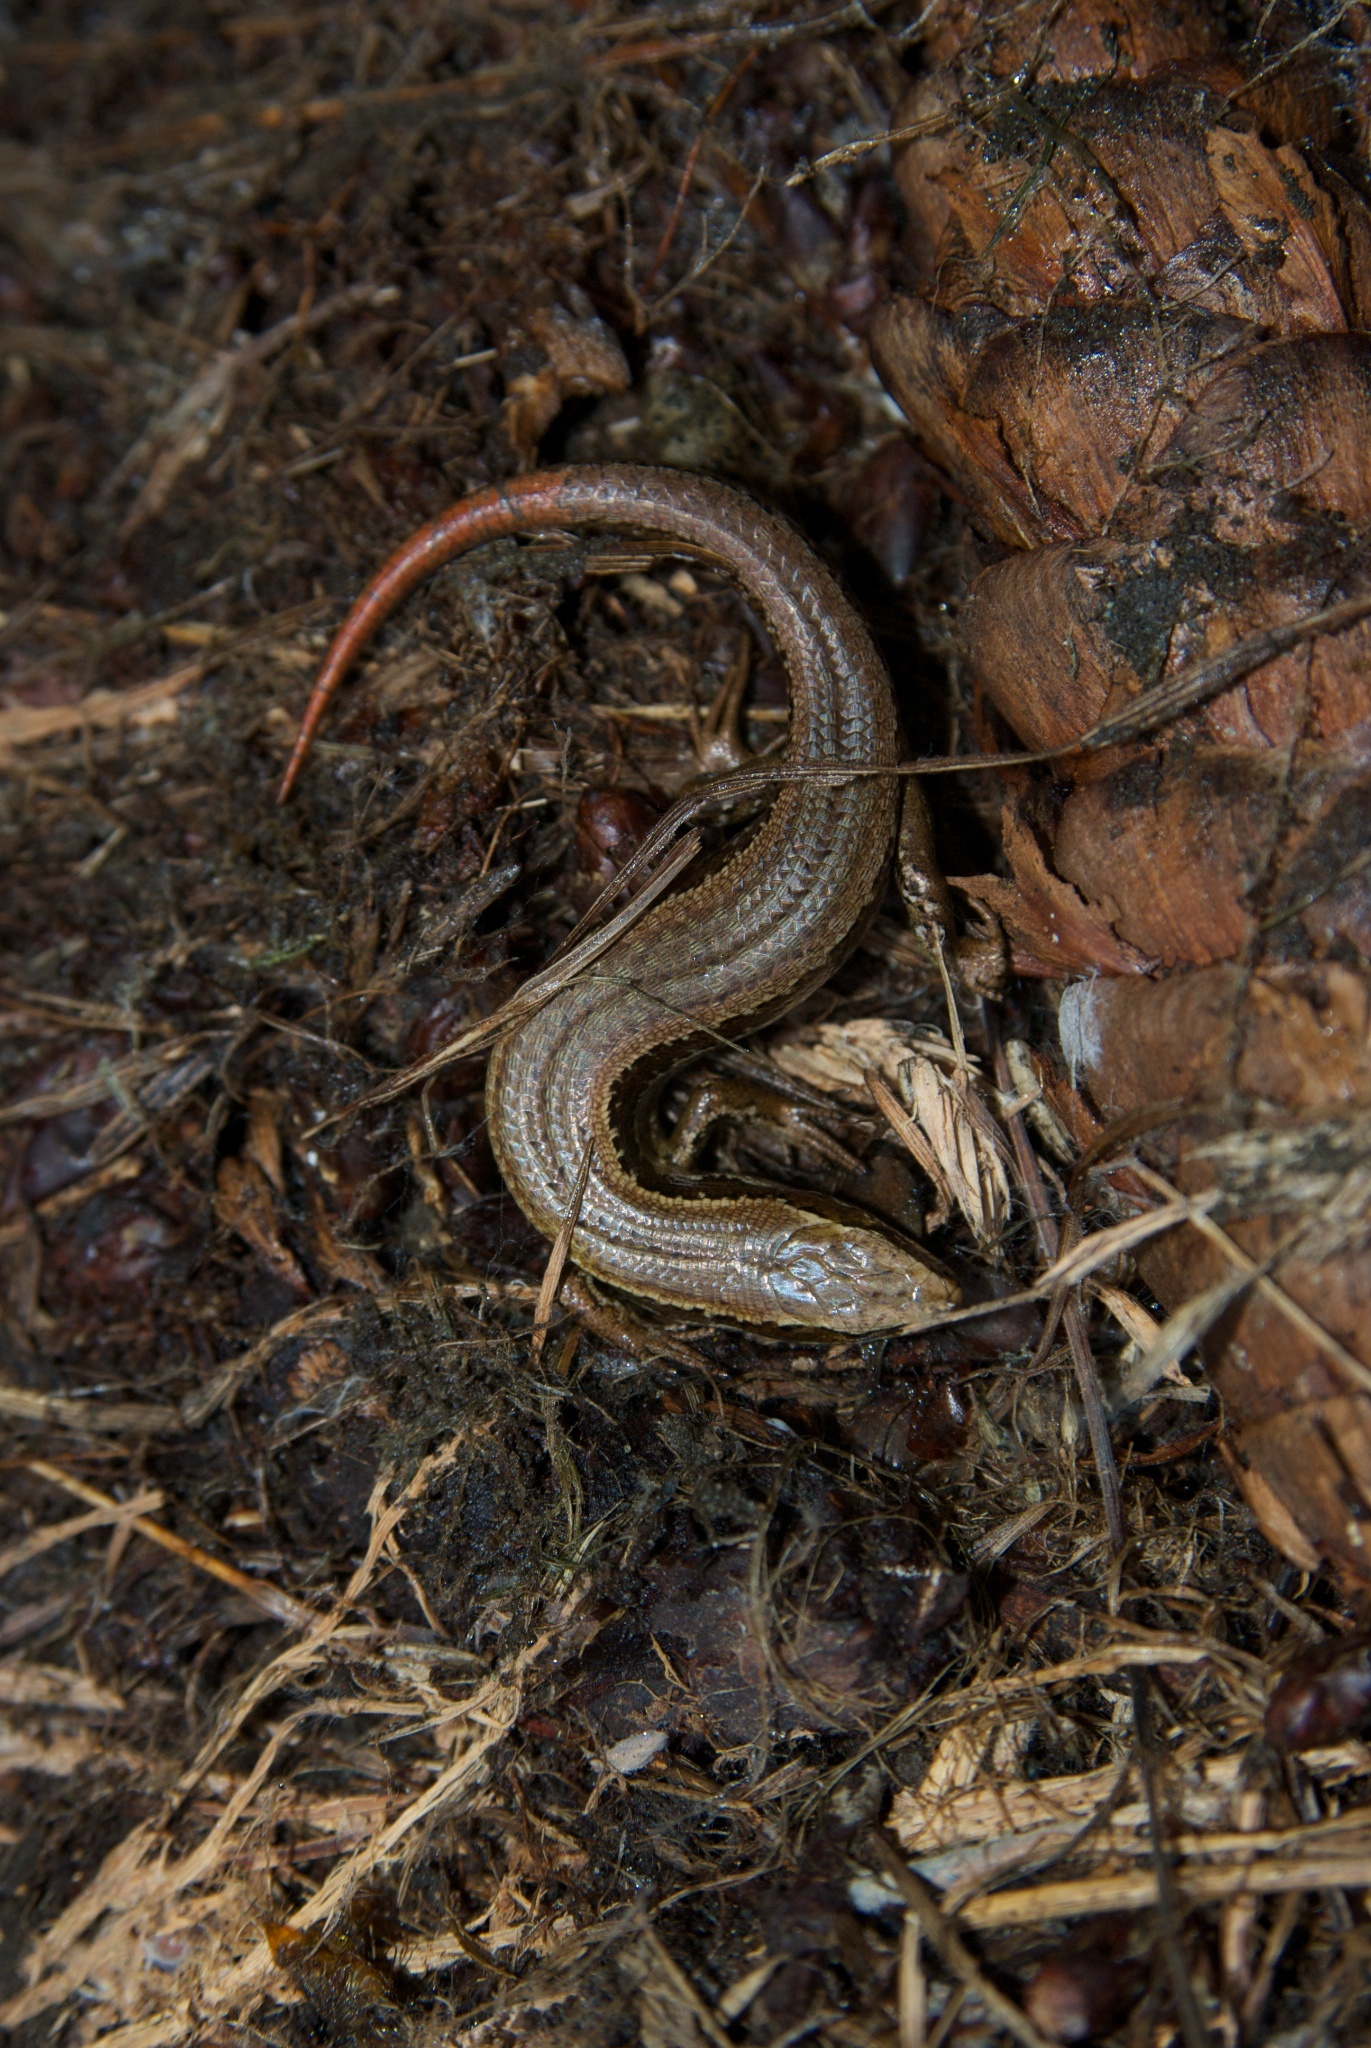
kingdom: Animalia
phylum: Chordata
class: Squamata
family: Scincidae
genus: Oligosoma
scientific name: Oligosoma polychroma
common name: Common new zealand skink
